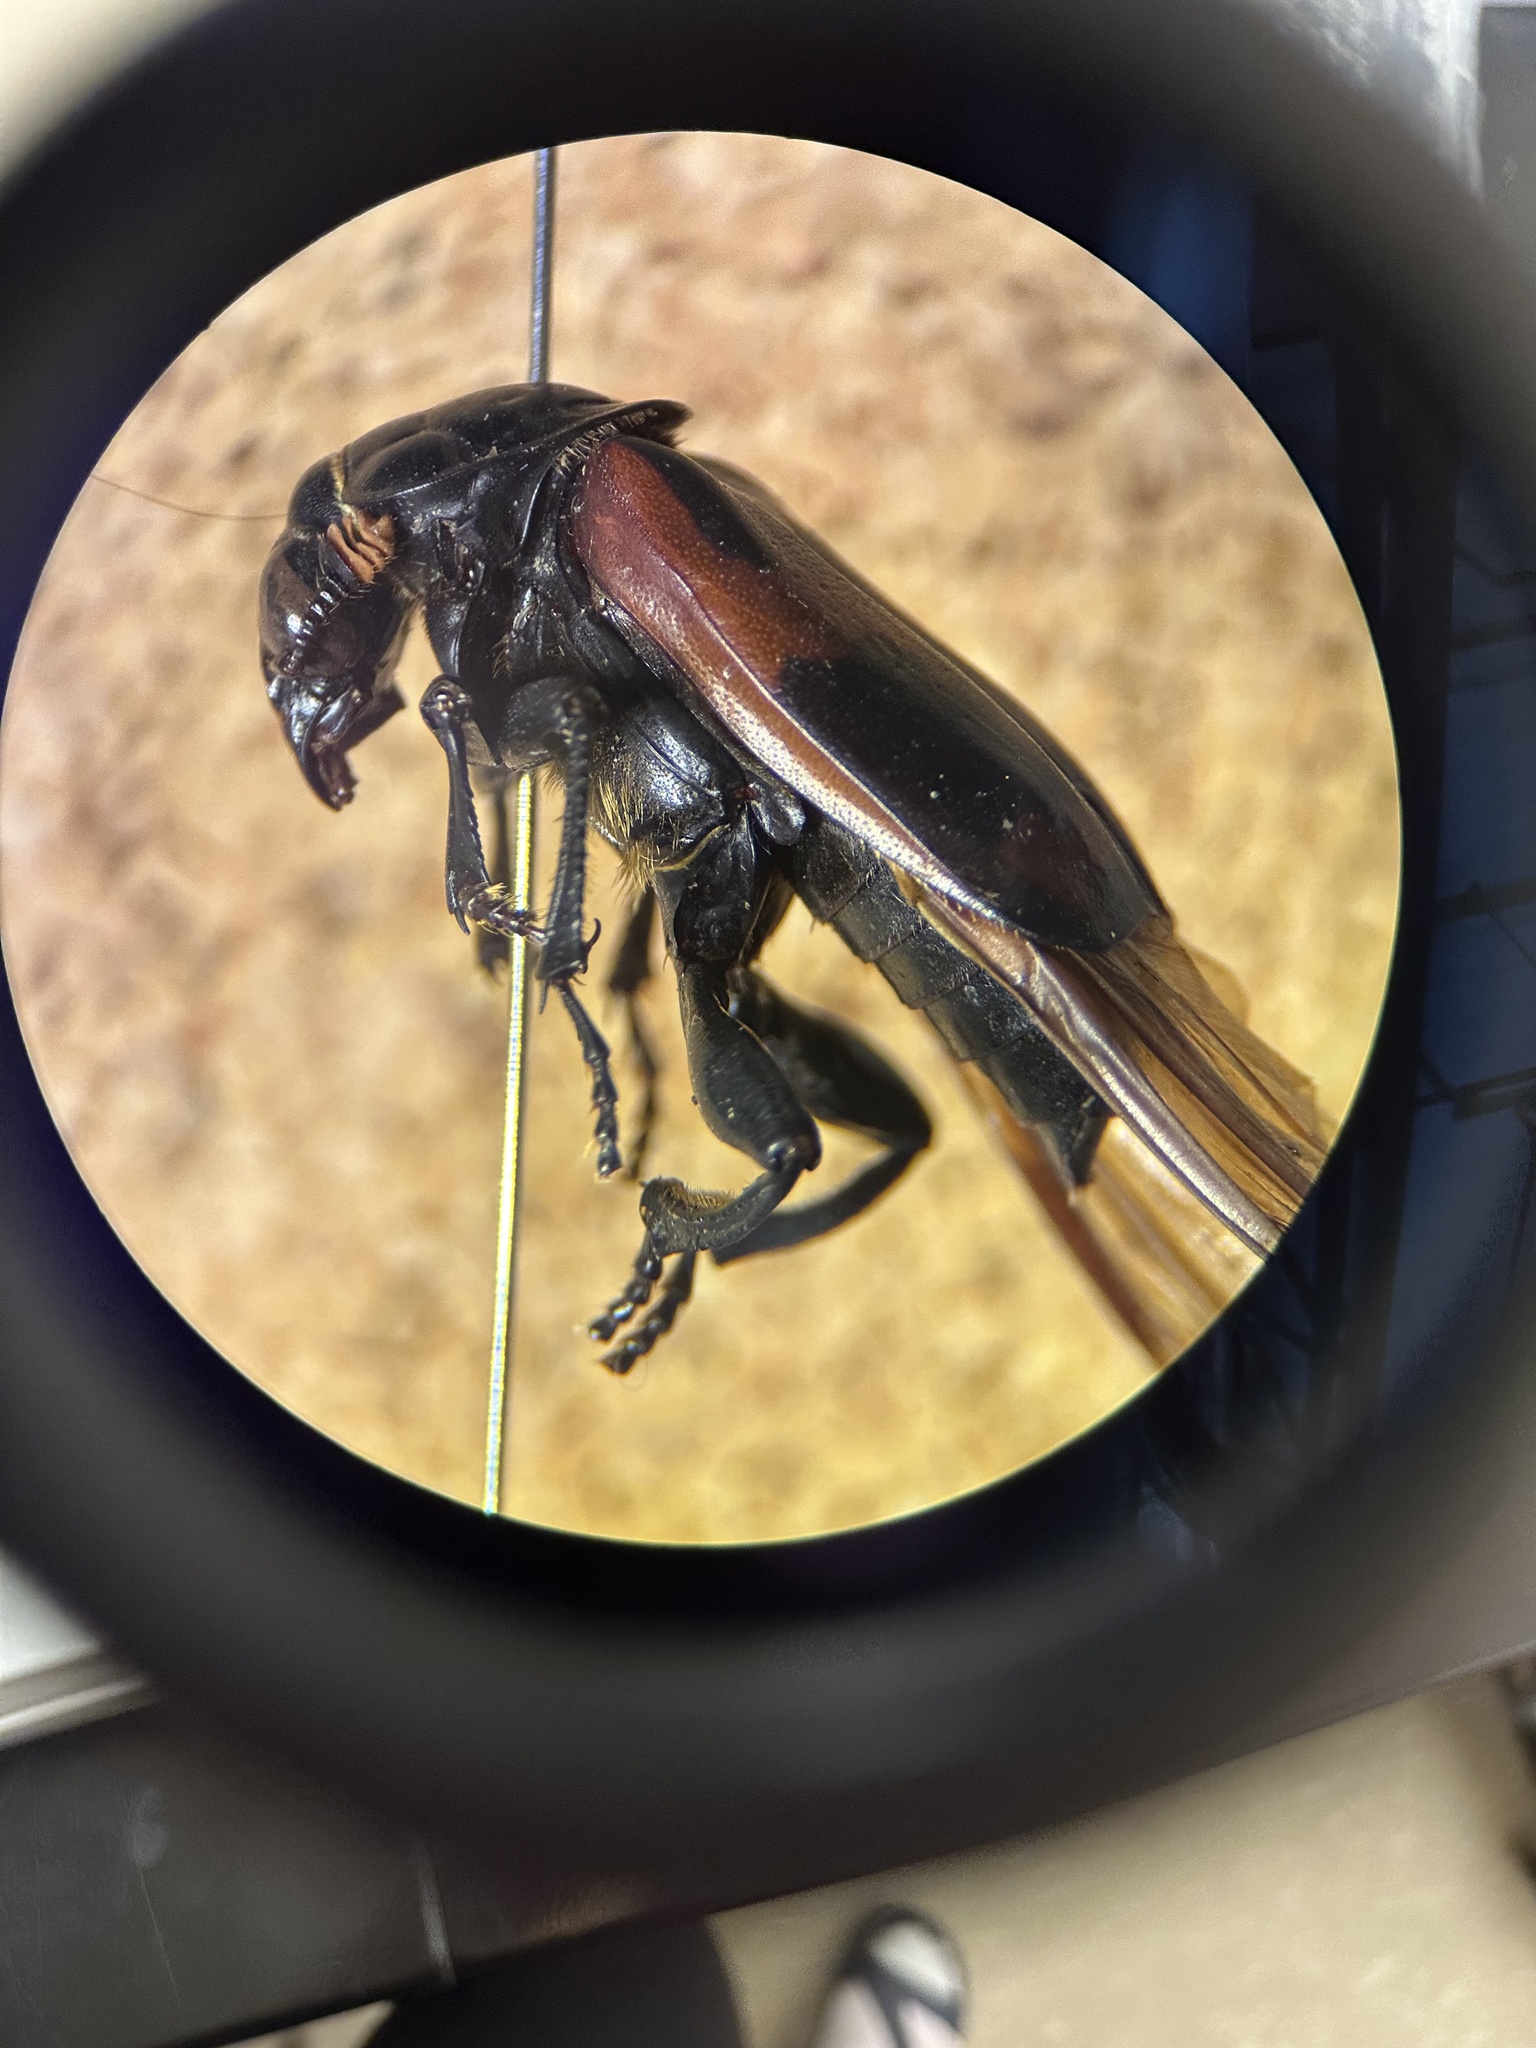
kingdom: Animalia
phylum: Arthropoda
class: Insecta
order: Coleoptera
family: Staphylinidae
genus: Nicrophorus
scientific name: Nicrophorus sayi
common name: Say's burying beetle
